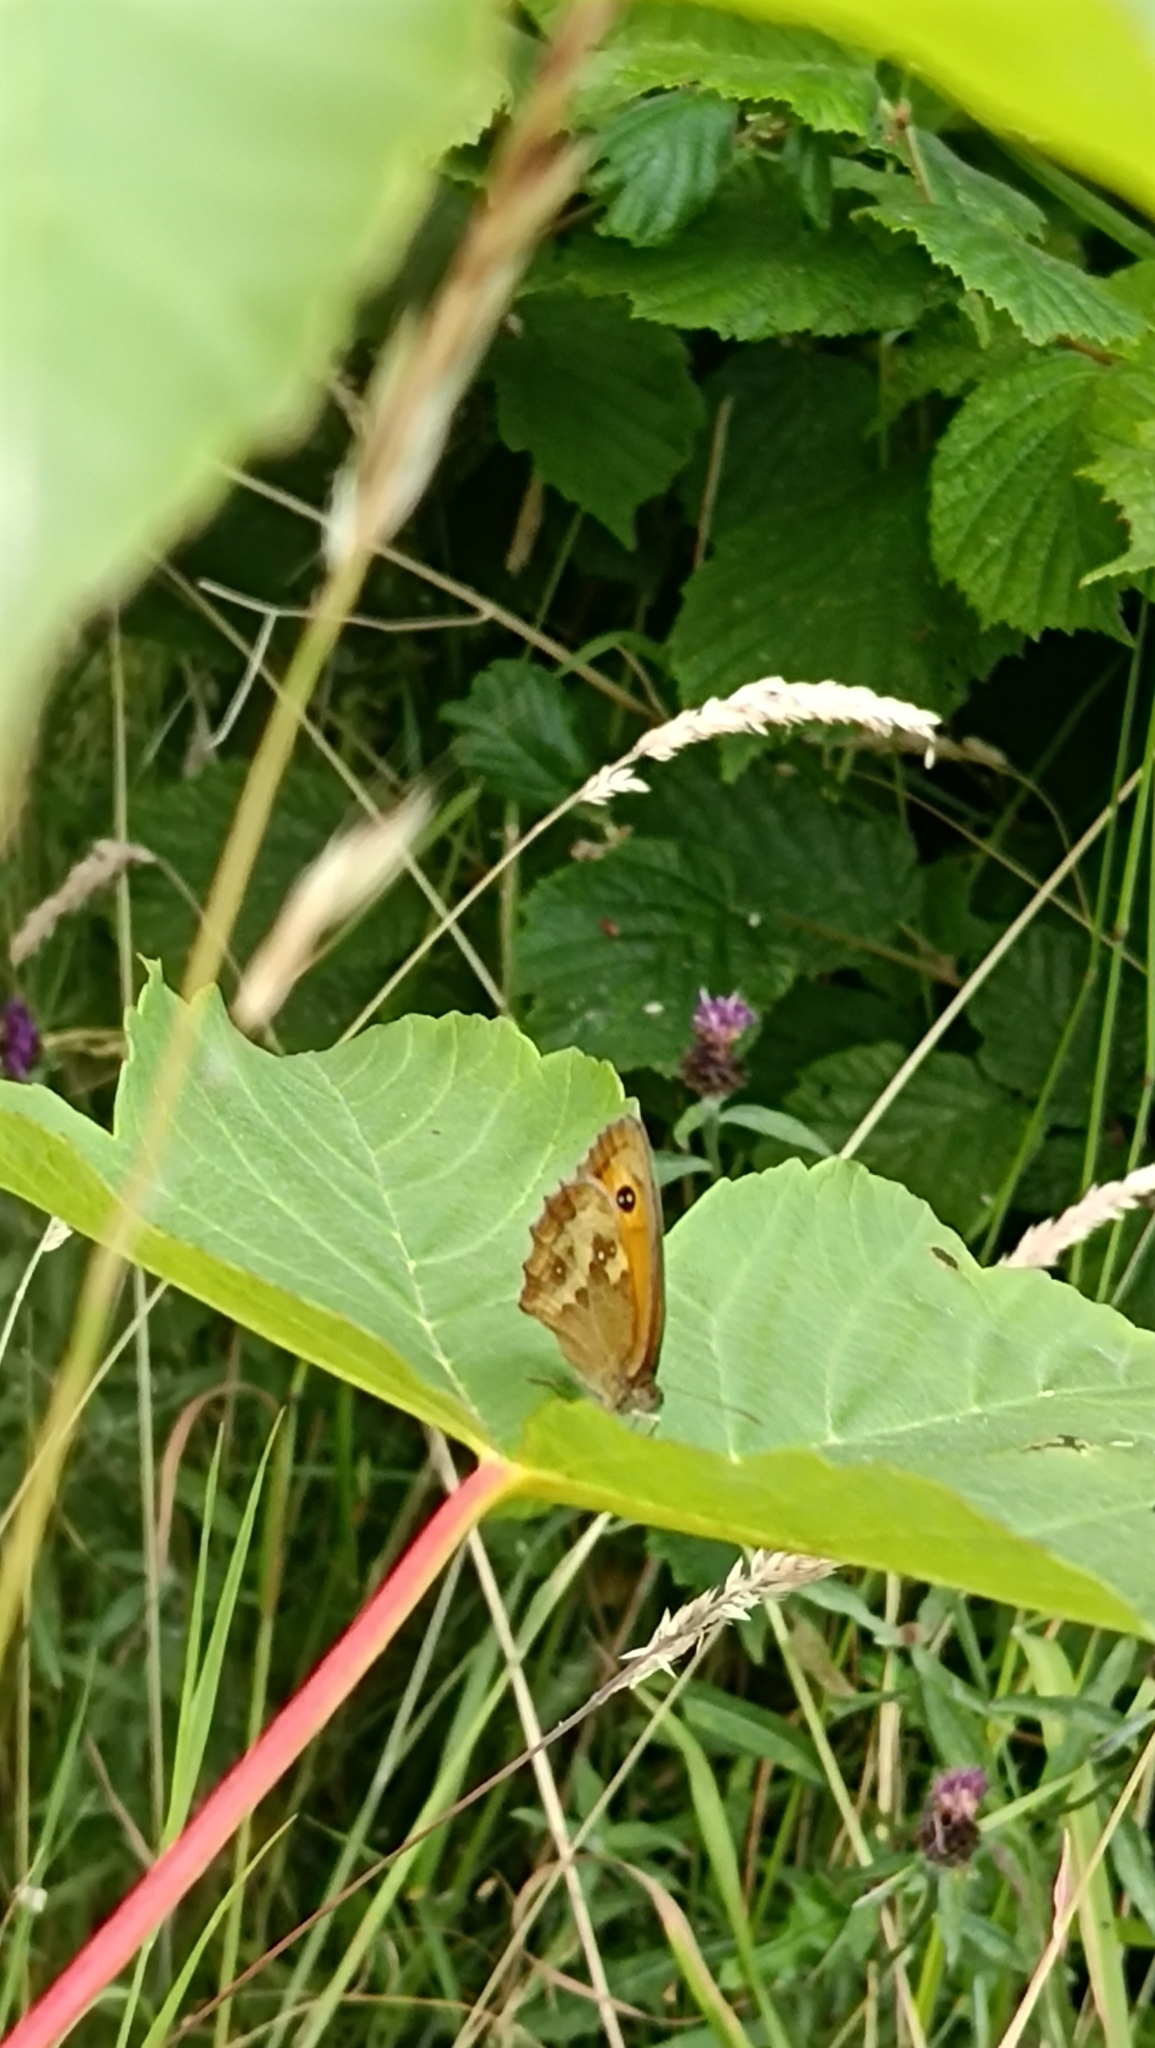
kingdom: Animalia
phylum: Arthropoda
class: Insecta
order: Lepidoptera
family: Nymphalidae
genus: Pyronia
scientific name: Pyronia tithonus
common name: Gatekeeper
